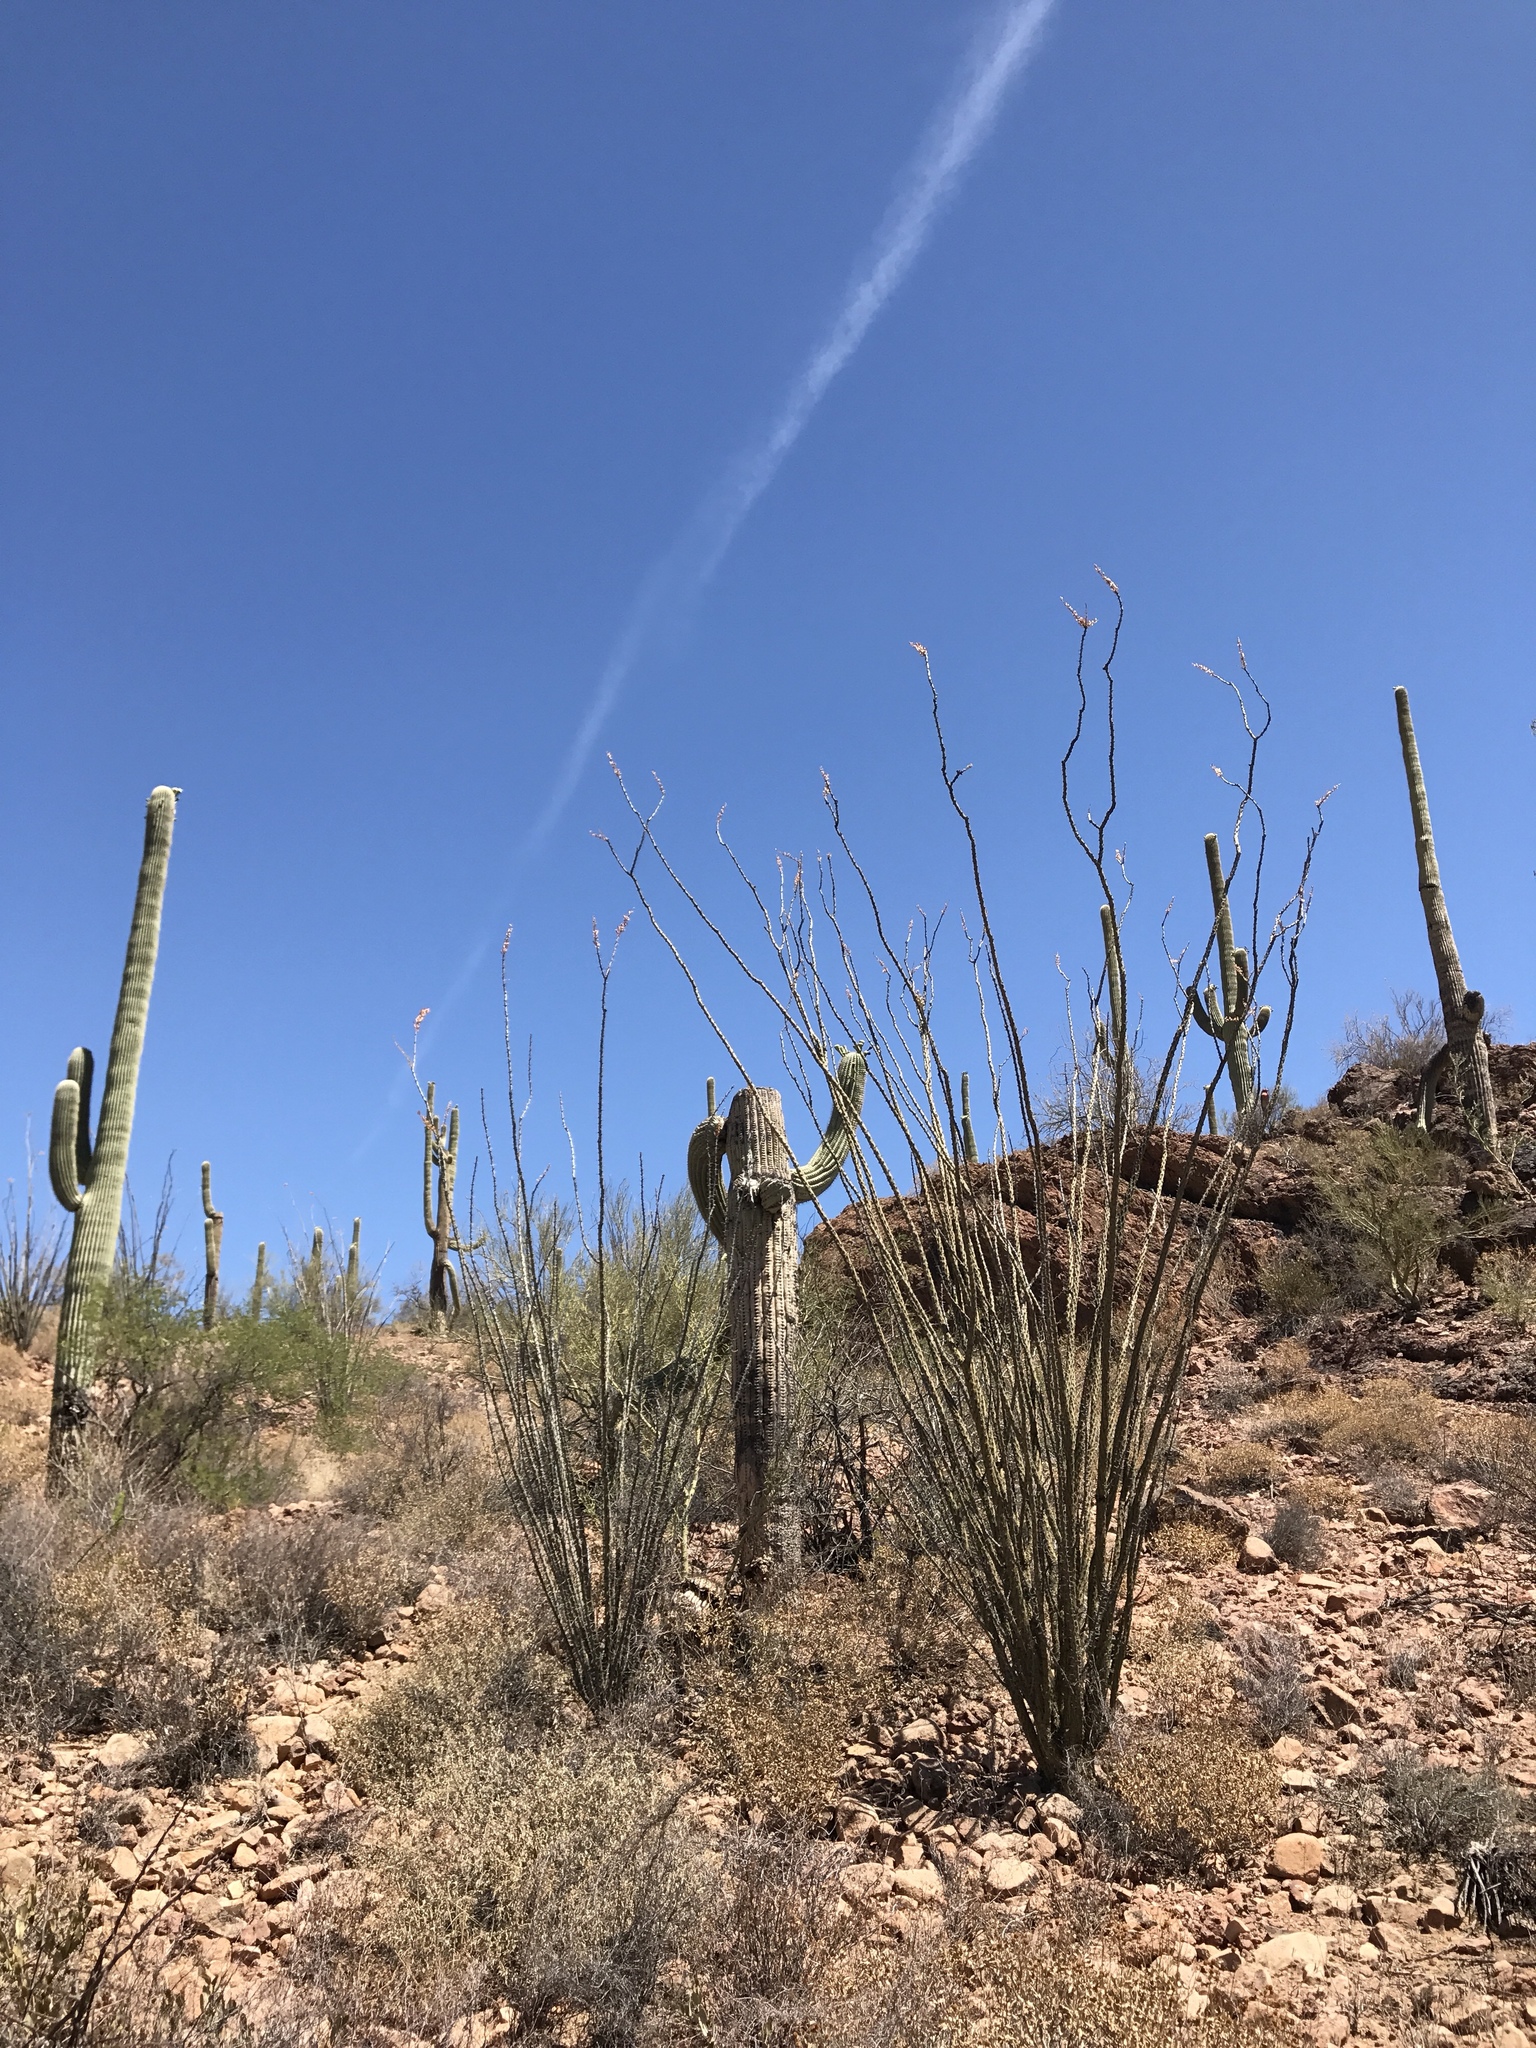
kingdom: Plantae
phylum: Tracheophyta
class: Magnoliopsida
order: Ericales
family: Fouquieriaceae
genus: Fouquieria
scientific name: Fouquieria splendens
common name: Vine-cactus
